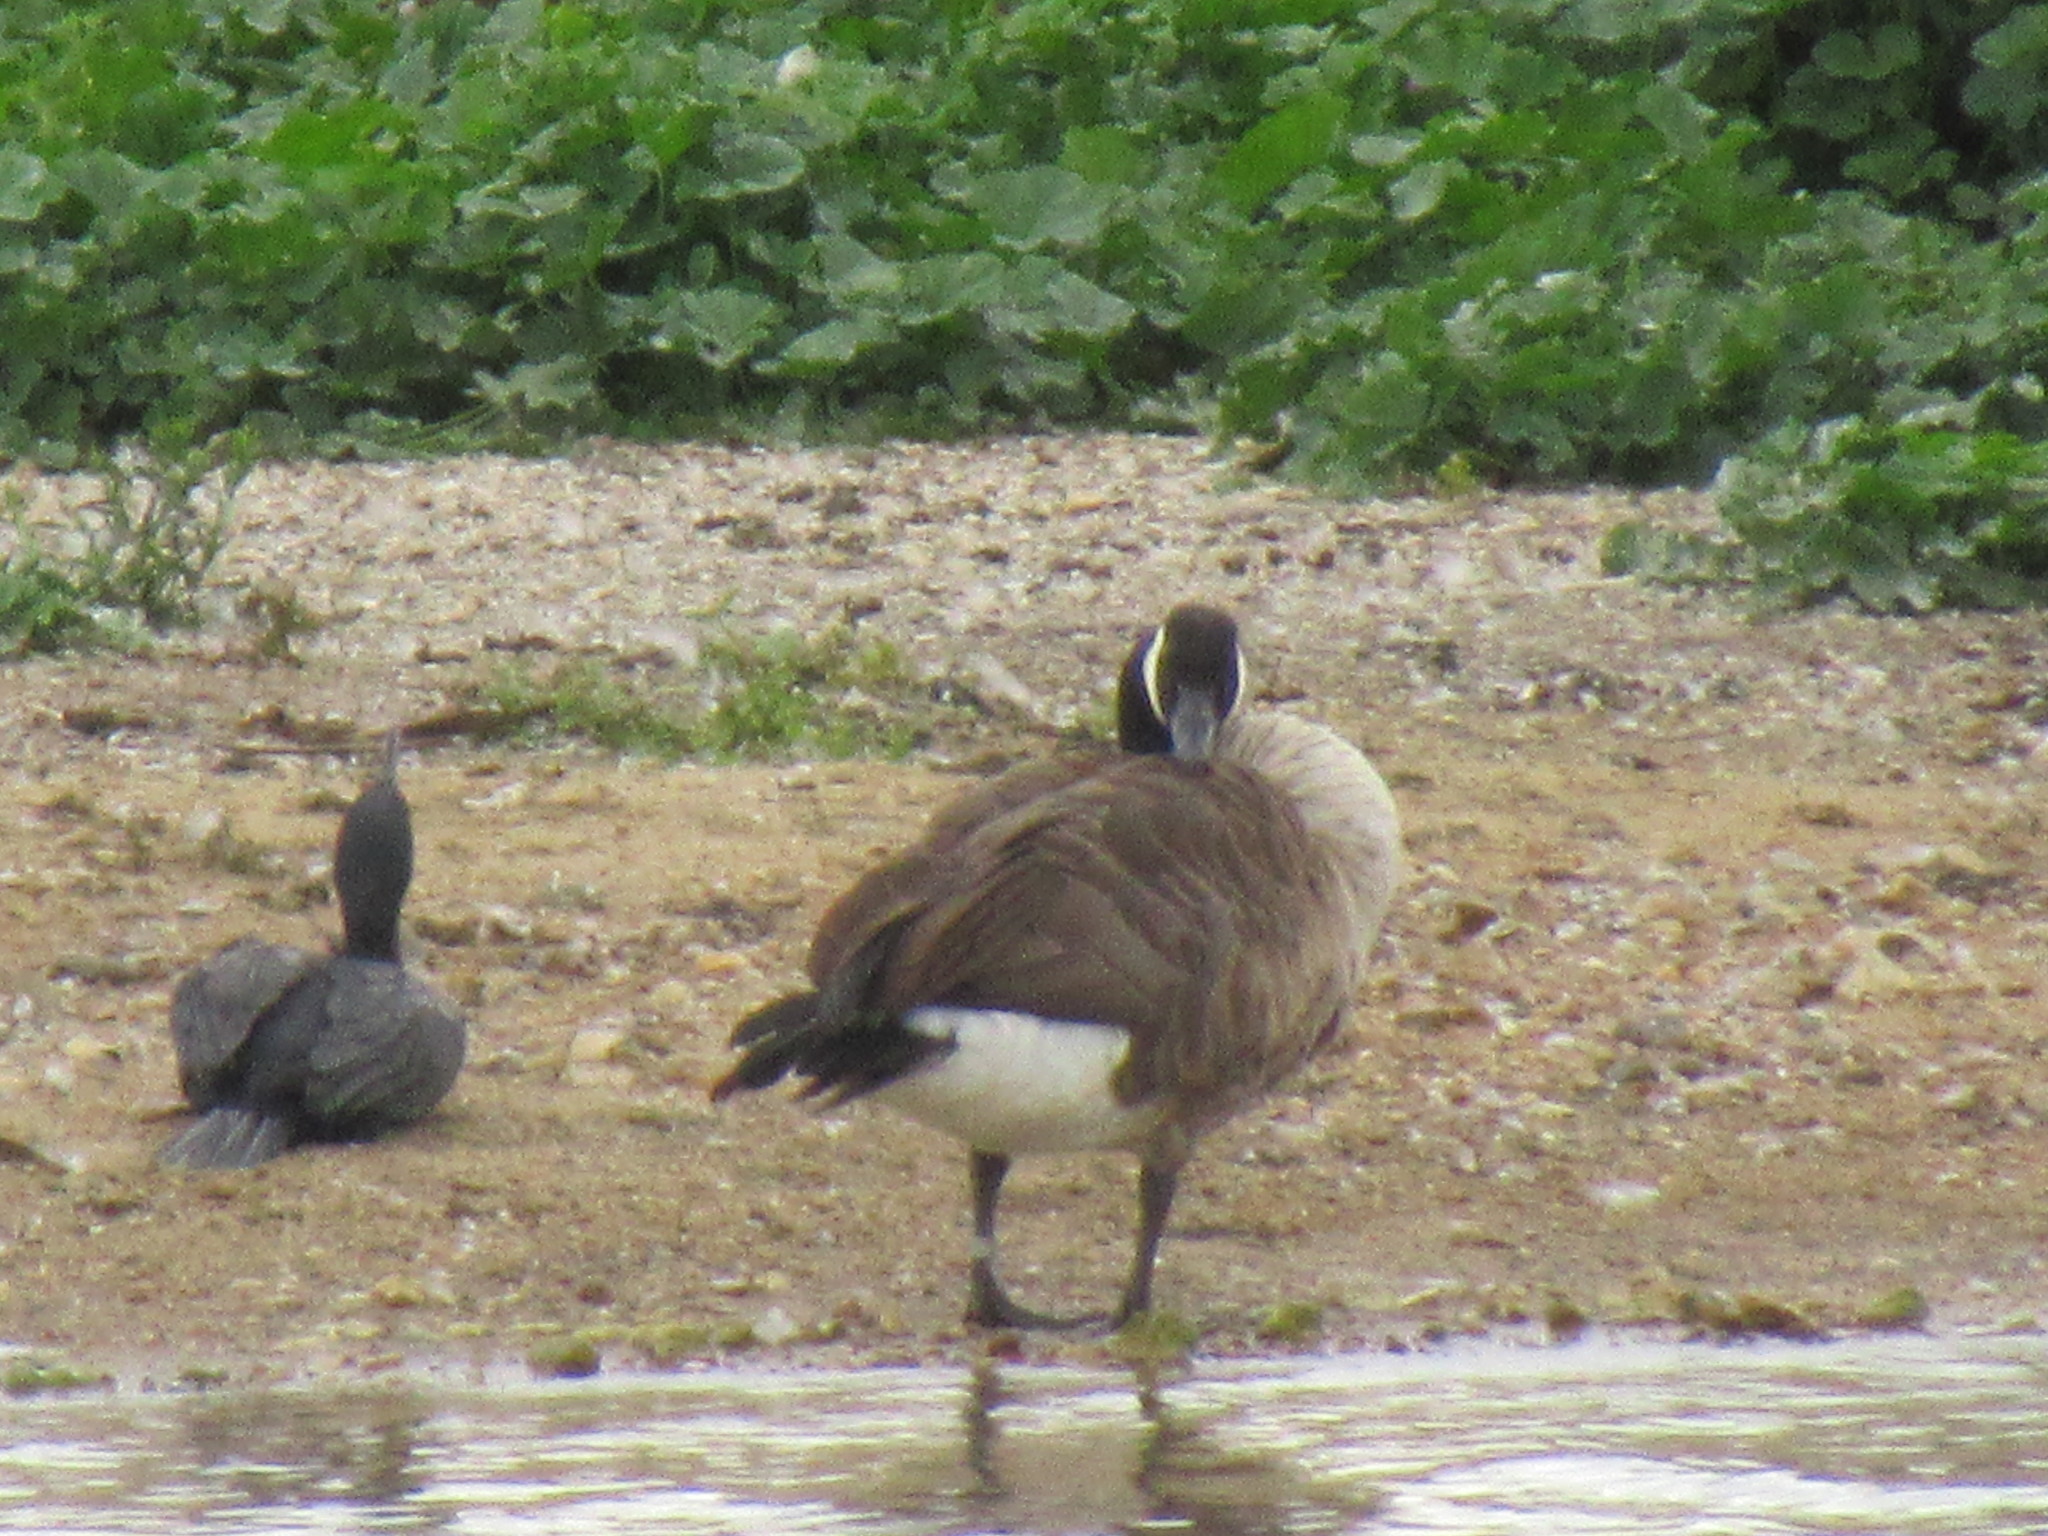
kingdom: Animalia
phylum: Chordata
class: Aves
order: Anseriformes
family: Anatidae
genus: Branta
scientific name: Branta canadensis
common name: Canada goose
